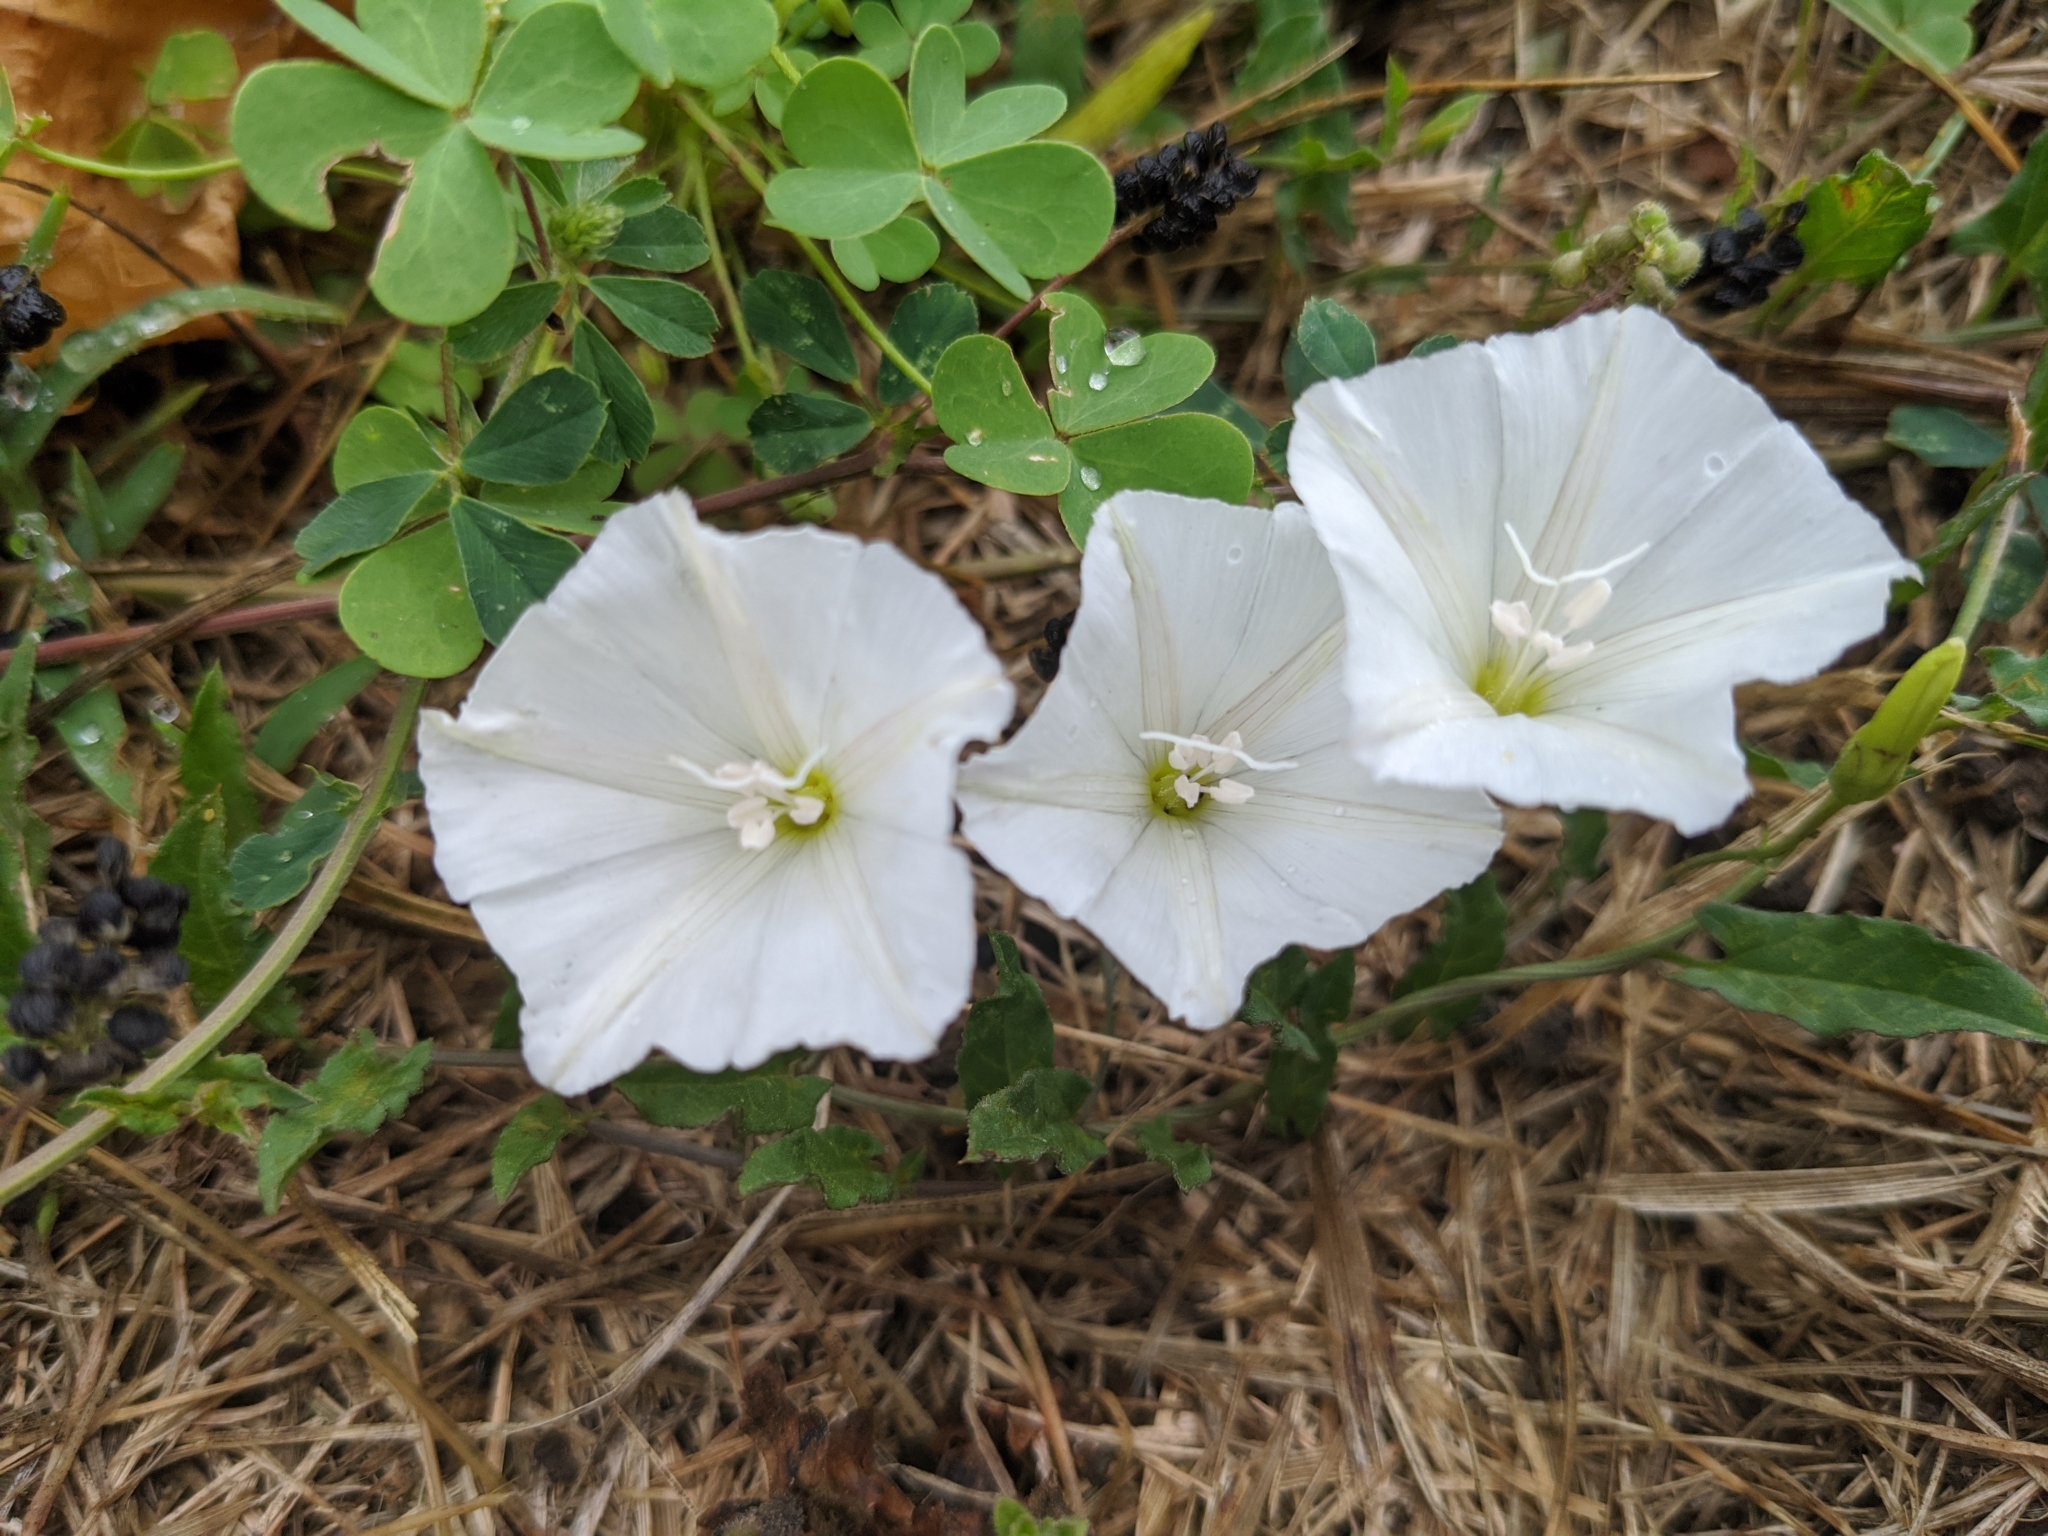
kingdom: Plantae
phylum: Tracheophyta
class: Magnoliopsida
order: Solanales
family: Convolvulaceae
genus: Convolvulus
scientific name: Convolvulus arvensis
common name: Field bindweed
